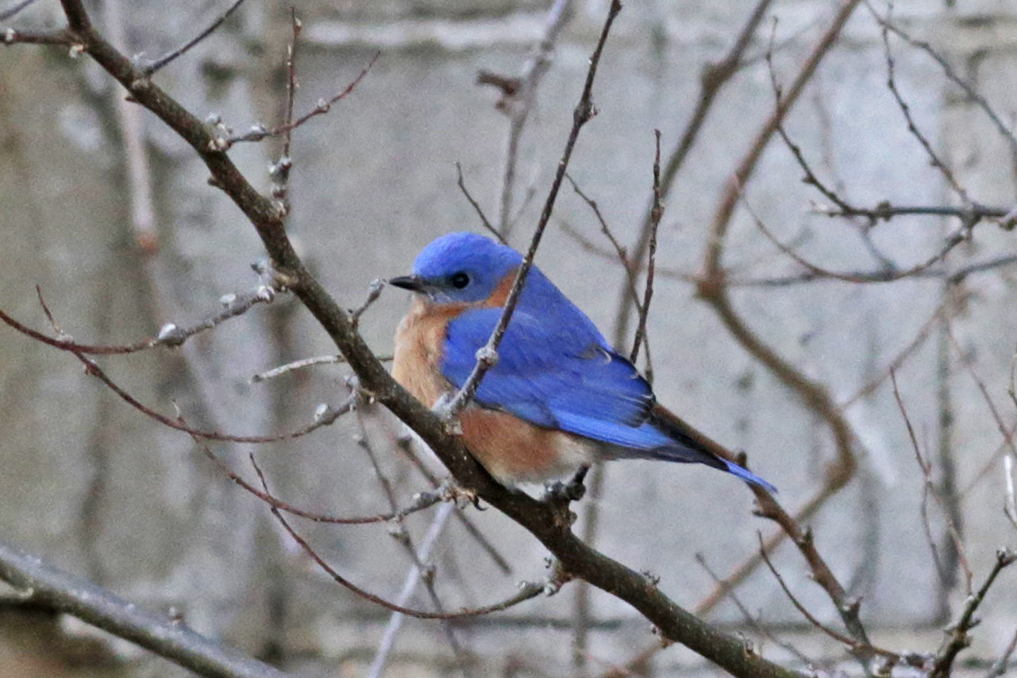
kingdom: Animalia
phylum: Chordata
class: Aves
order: Passeriformes
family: Turdidae
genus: Sialia
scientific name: Sialia sialis
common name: Eastern bluebird
